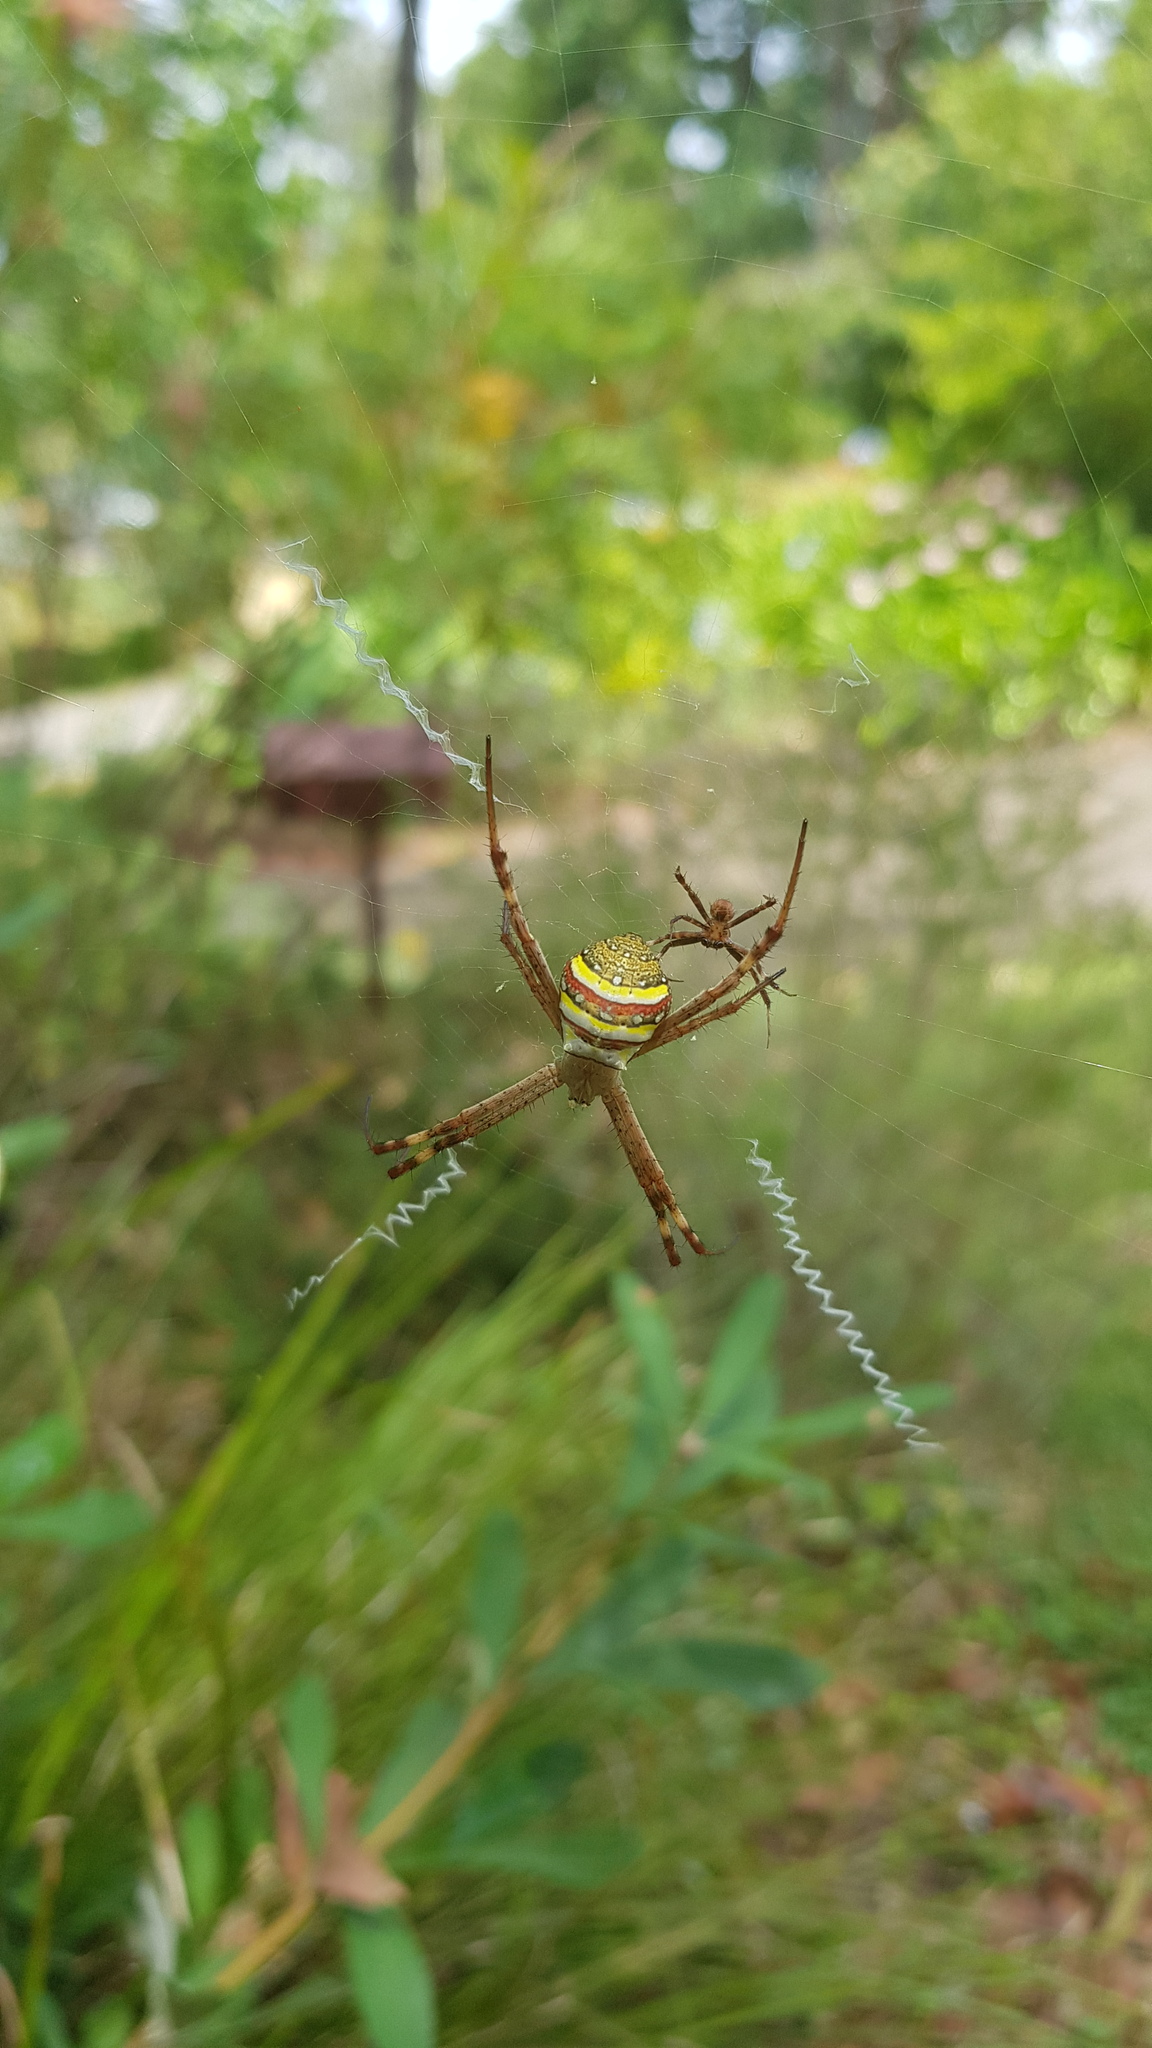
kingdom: Animalia
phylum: Arthropoda
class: Arachnida
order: Araneae
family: Araneidae
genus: Argiope
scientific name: Argiope keyserlingi
